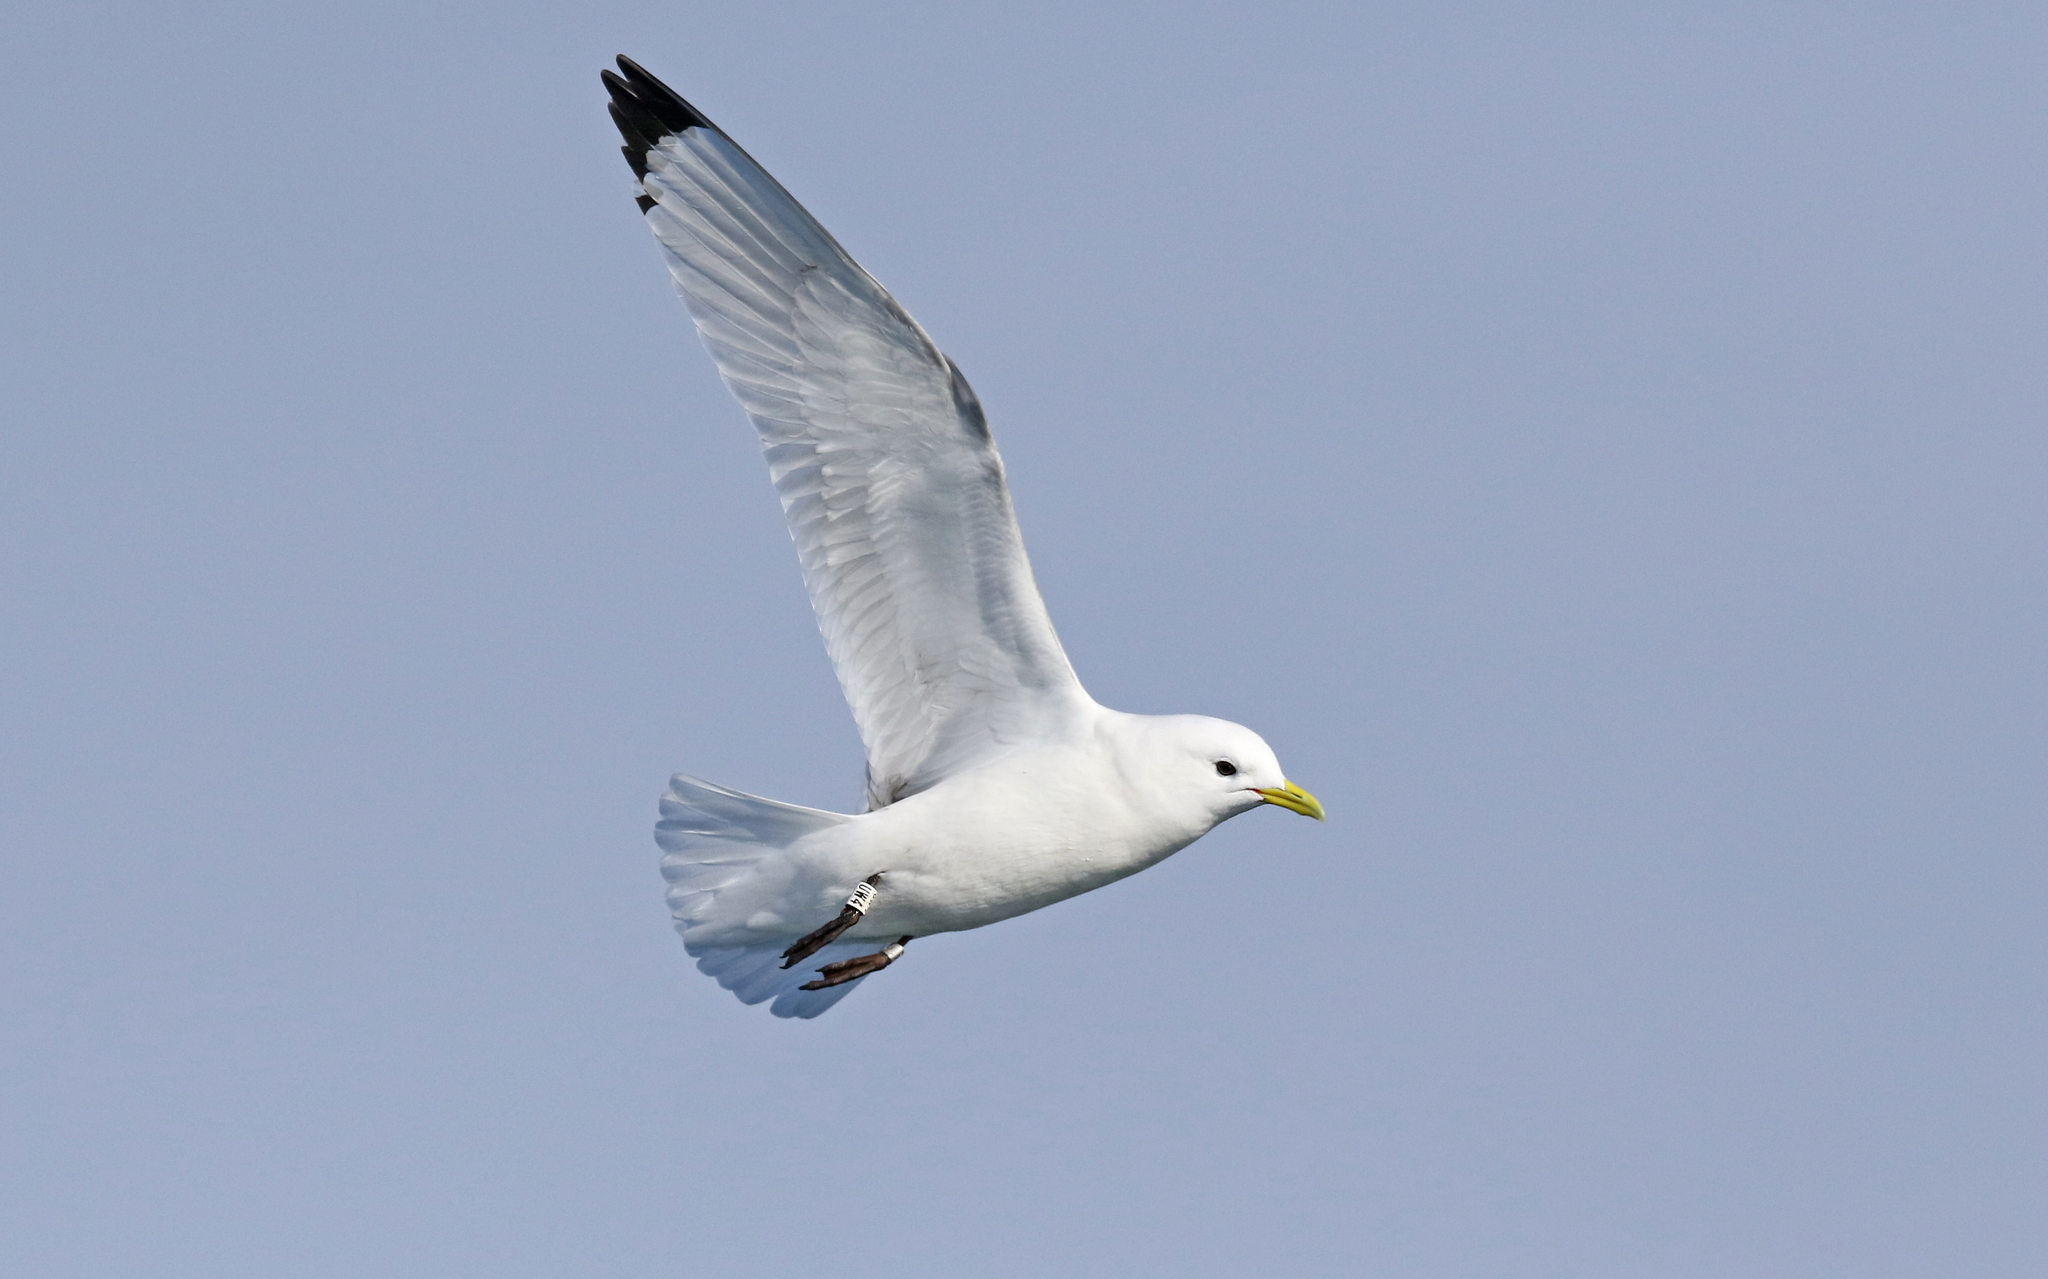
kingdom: Animalia
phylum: Chordata
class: Aves
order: Charadriiformes
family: Laridae
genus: Rissa
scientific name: Rissa tridactyla
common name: Black-legged kittiwake
